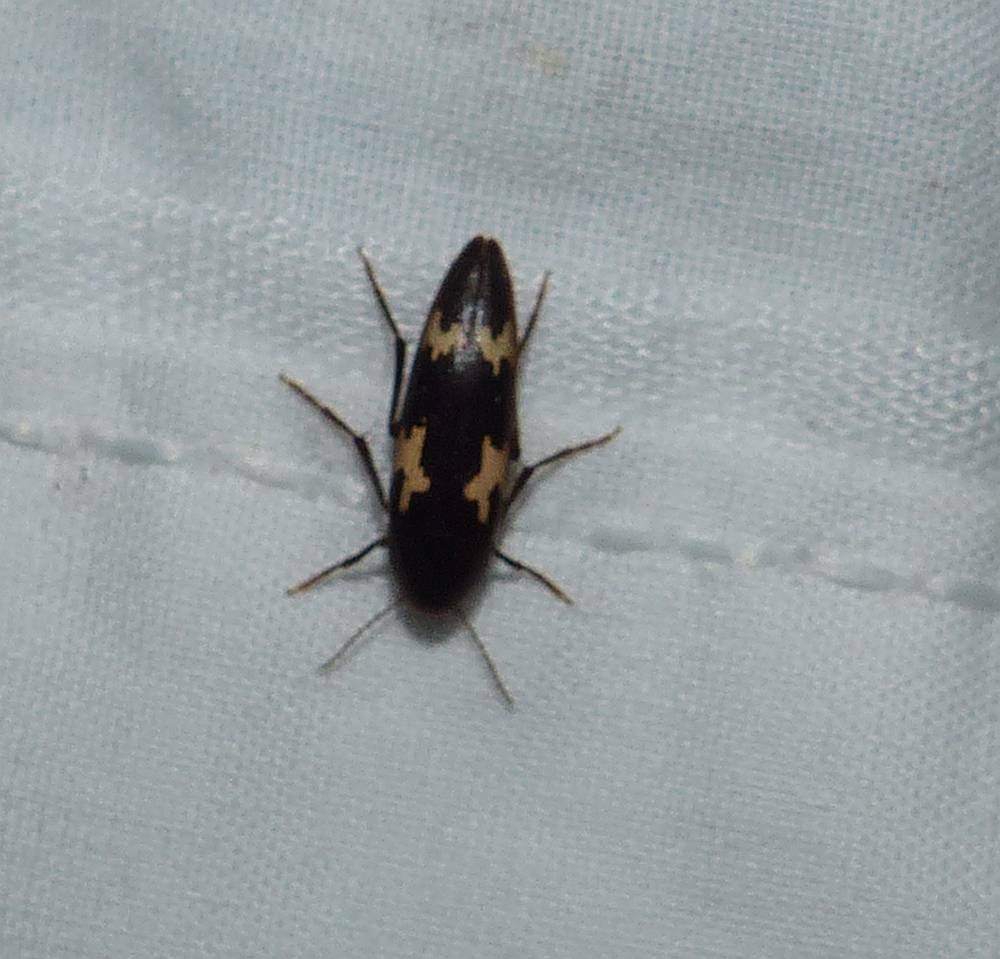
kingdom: Animalia
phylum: Arthropoda
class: Insecta
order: Coleoptera
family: Melandryidae
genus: Dircaea
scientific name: Dircaea liturata
